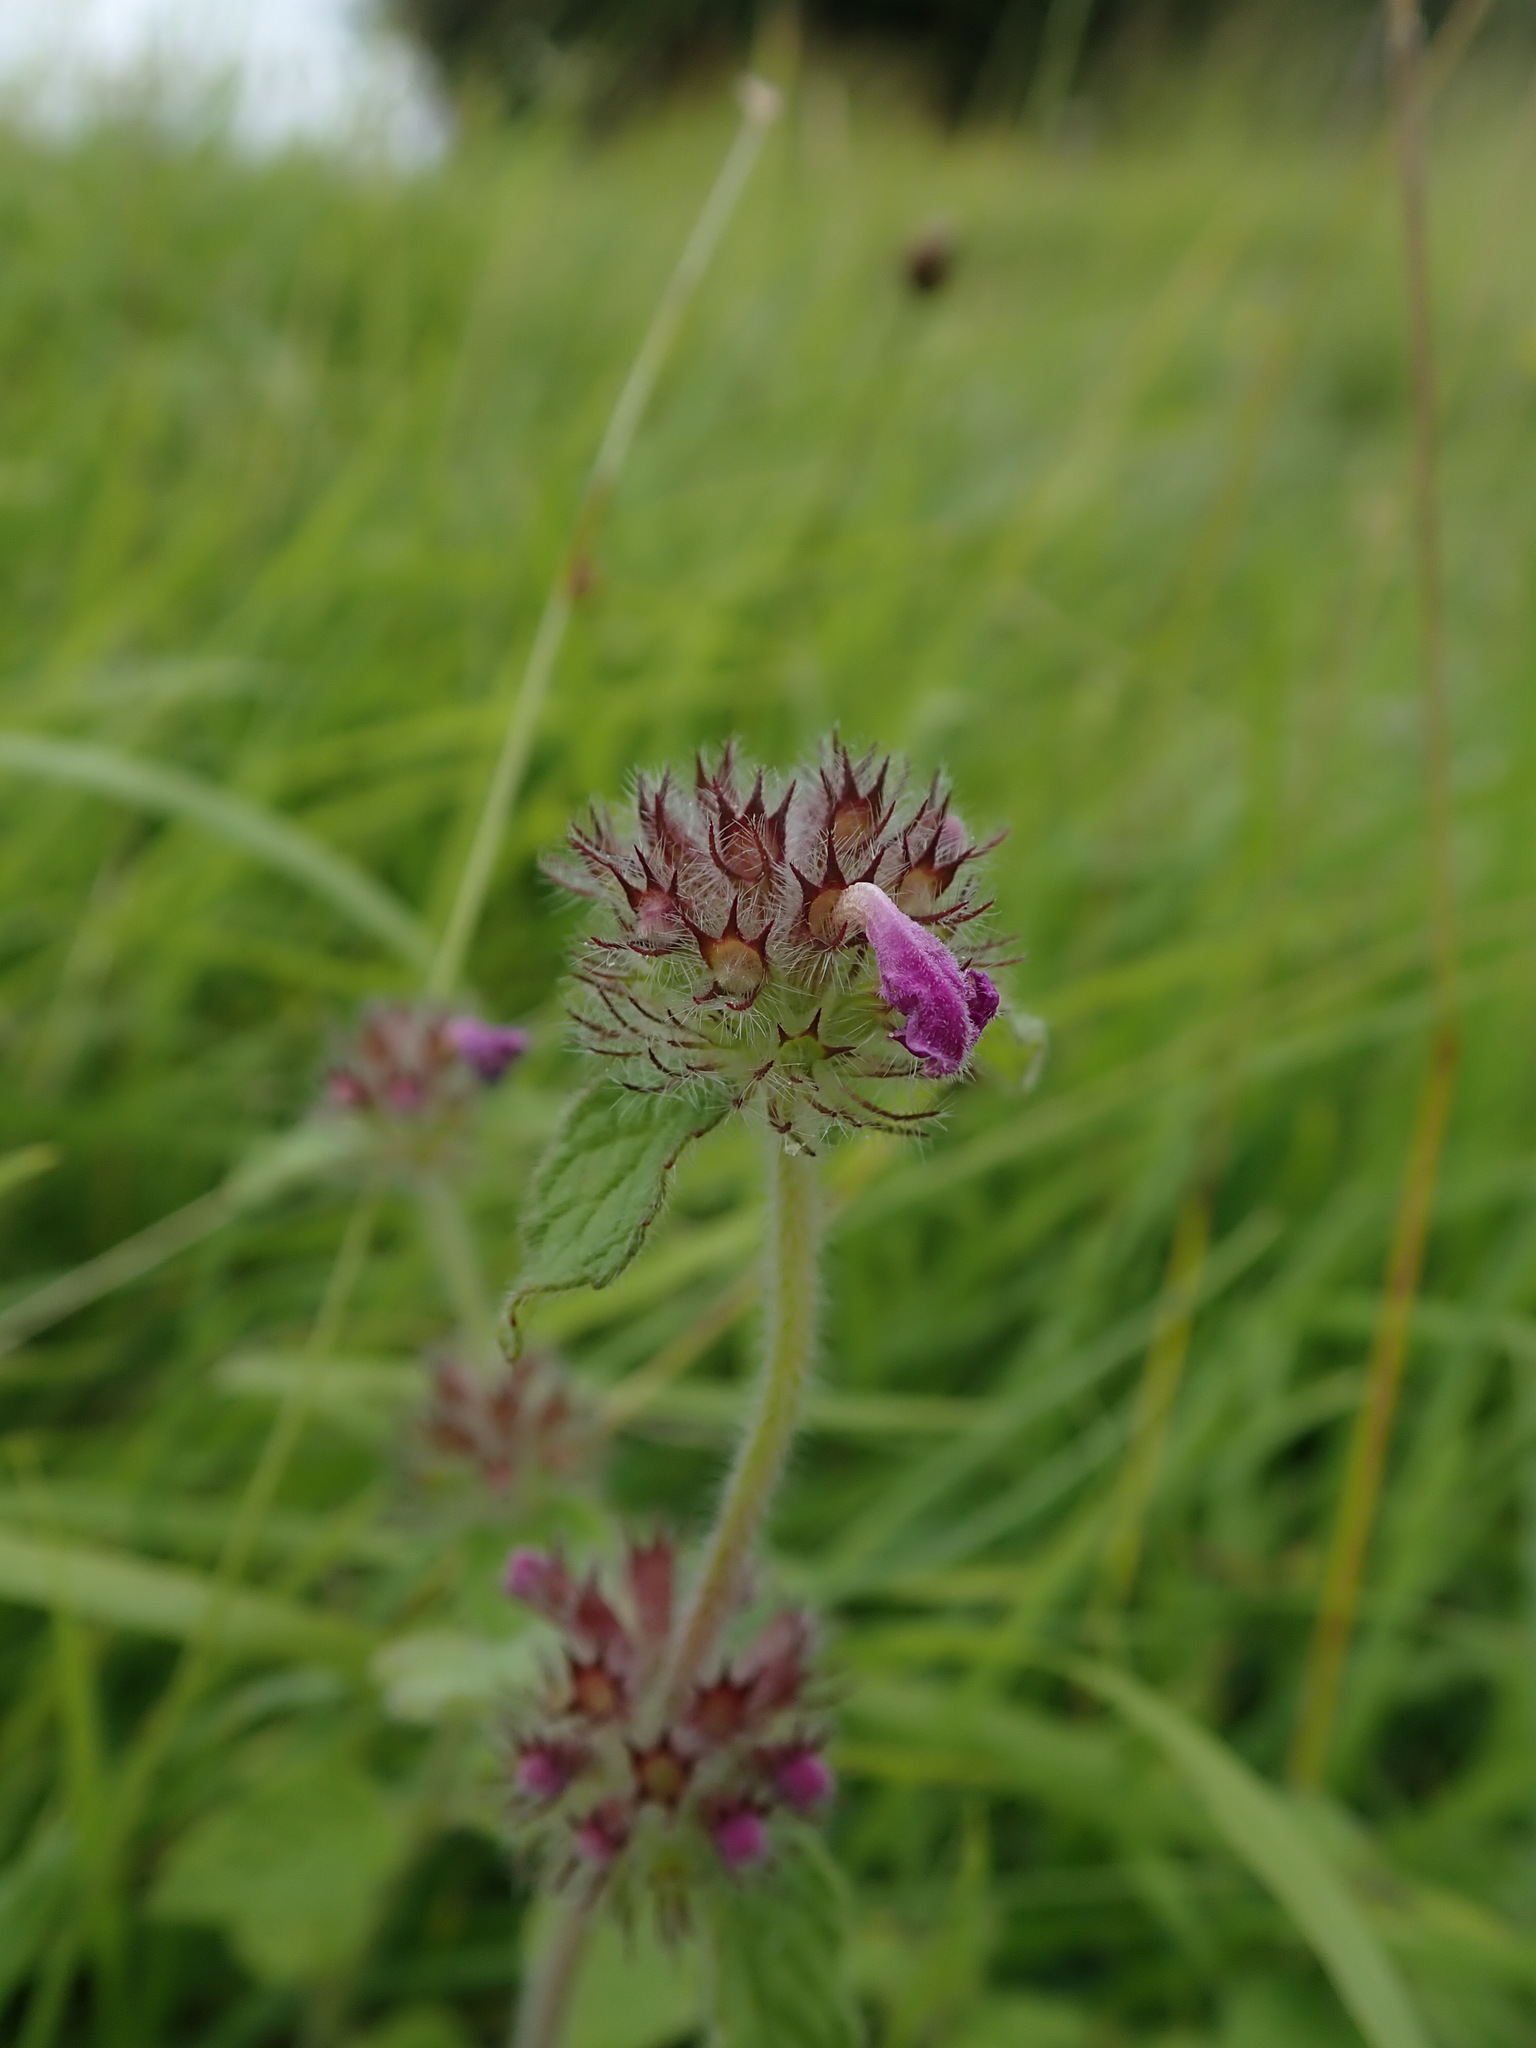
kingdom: Plantae
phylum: Tracheophyta
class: Magnoliopsida
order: Lamiales
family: Lamiaceae
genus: Clinopodium
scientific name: Clinopodium vulgare
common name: Wild basil
